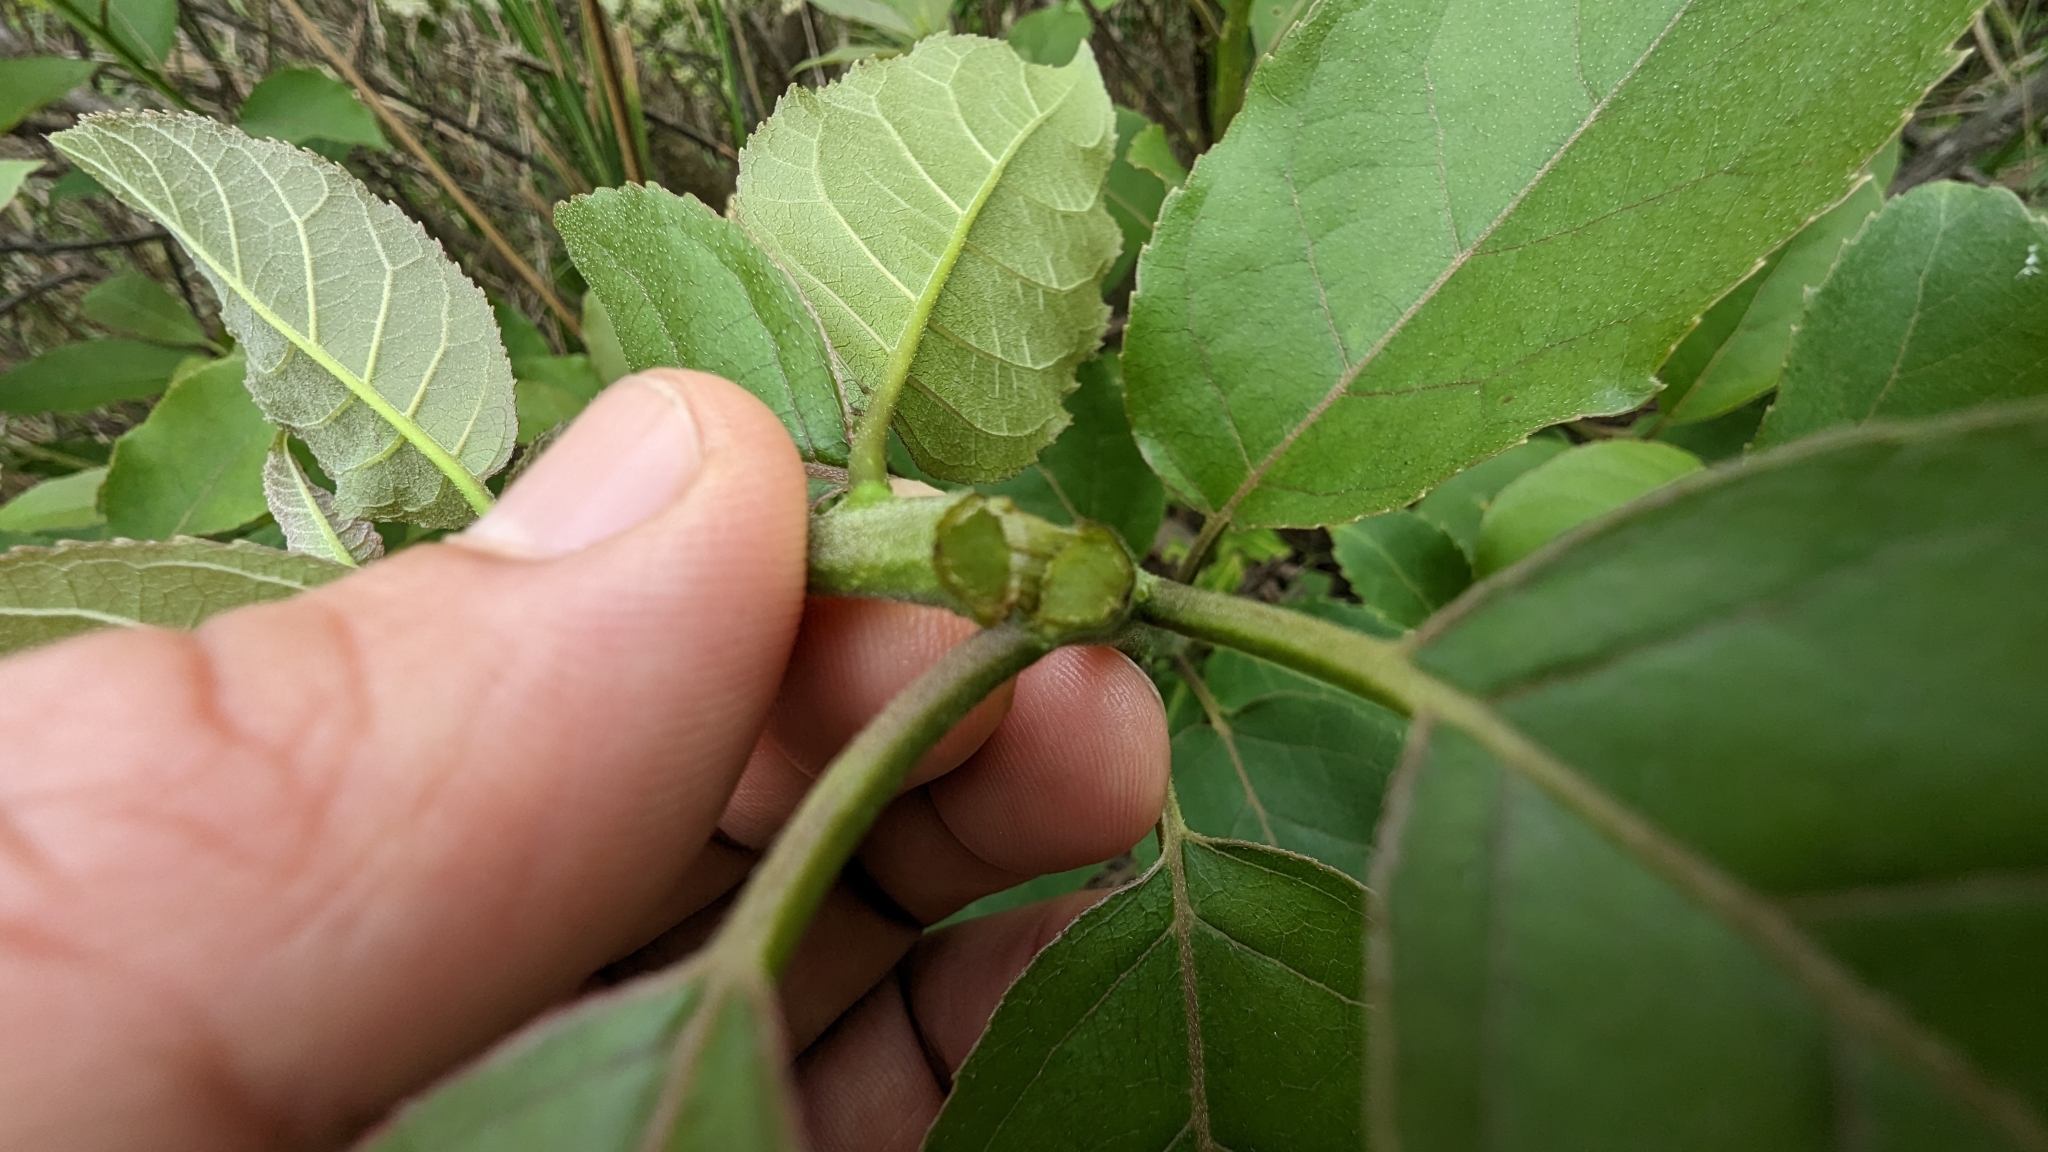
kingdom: Plantae
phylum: Tracheophyta
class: Magnoliopsida
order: Boraginales
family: Ehretiaceae
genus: Ehretia
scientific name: Ehretia acuminata
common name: Kodo wood
